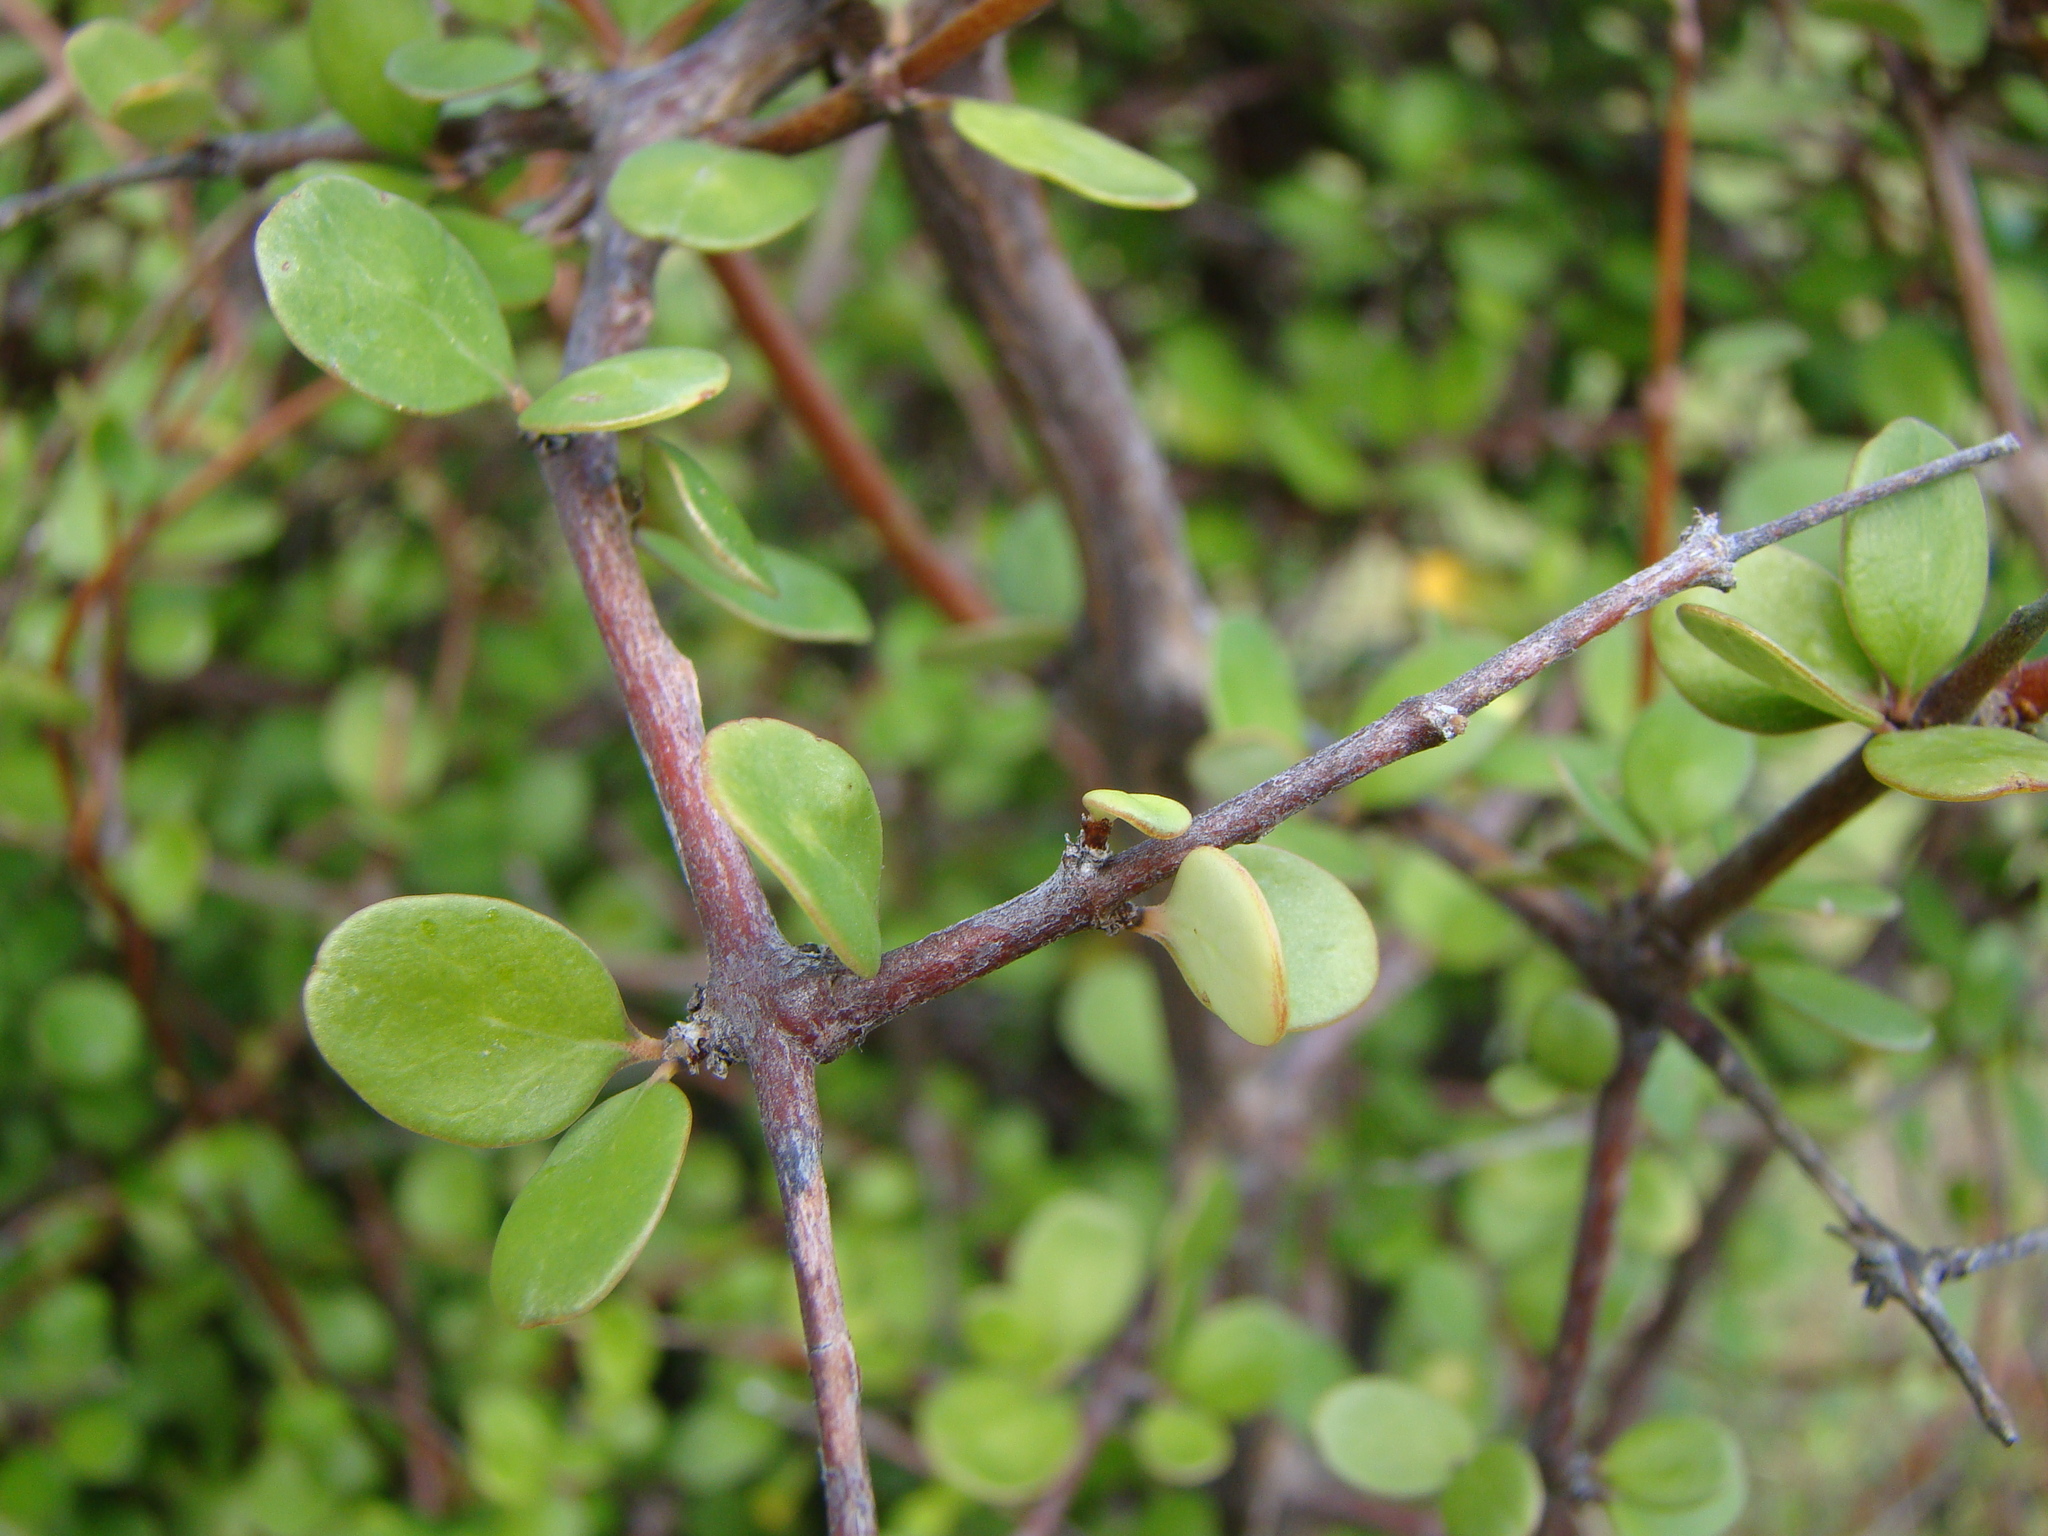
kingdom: Plantae
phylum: Tracheophyta
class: Magnoliopsida
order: Gentianales
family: Rubiaceae
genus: Coprosma
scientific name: Coprosma crassifolia
